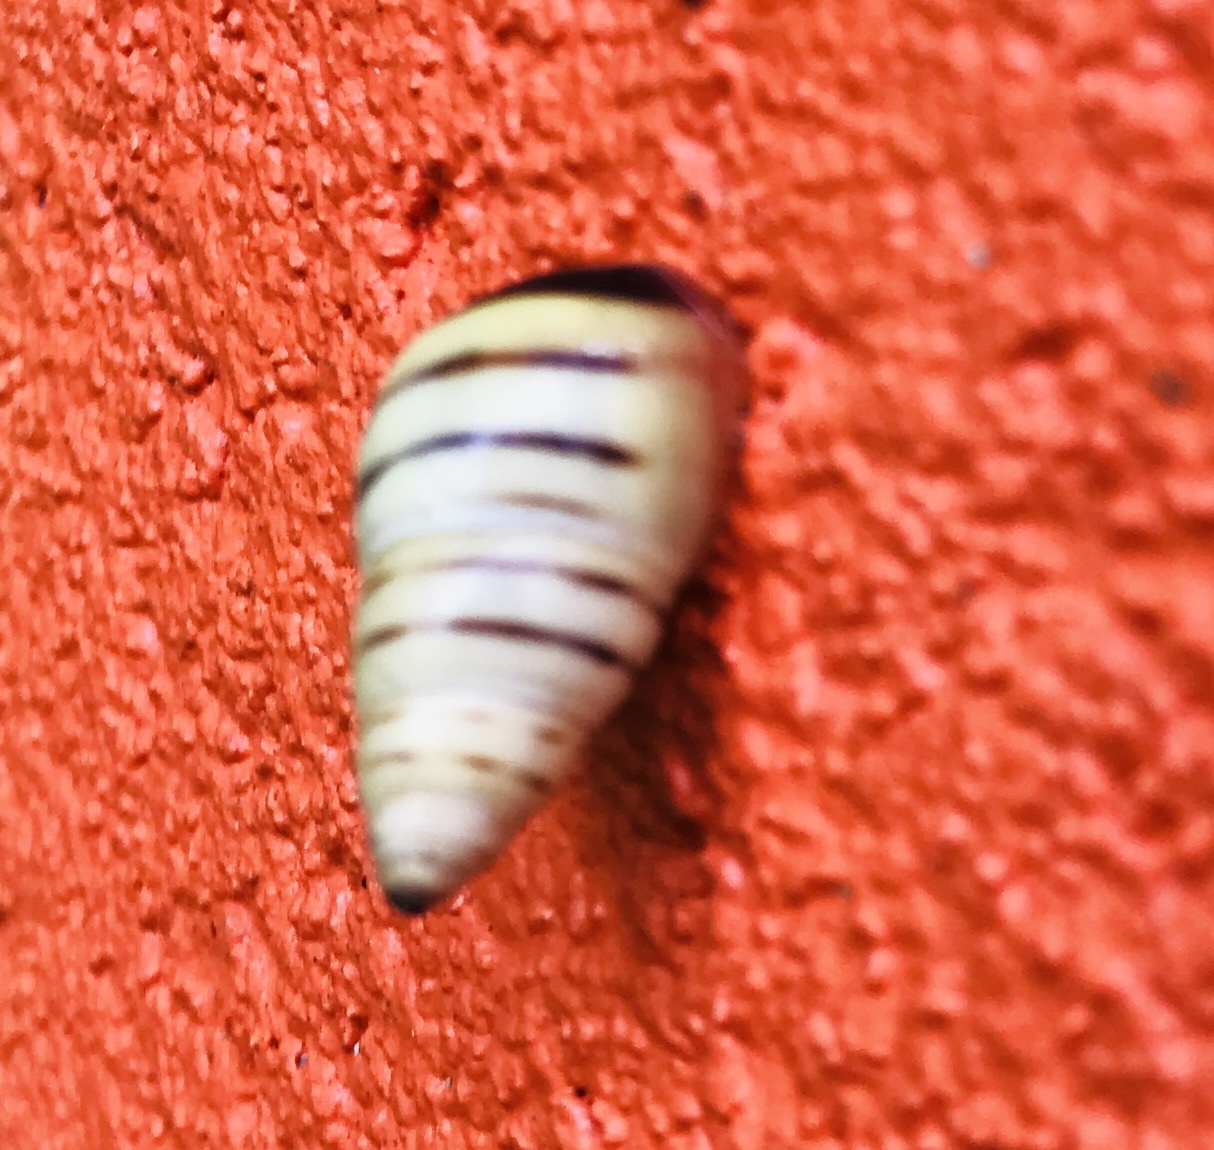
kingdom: Animalia
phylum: Mollusca
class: Gastropoda
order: Stylommatophora
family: Bulimulidae
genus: Drymaeus
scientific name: Drymaeus
